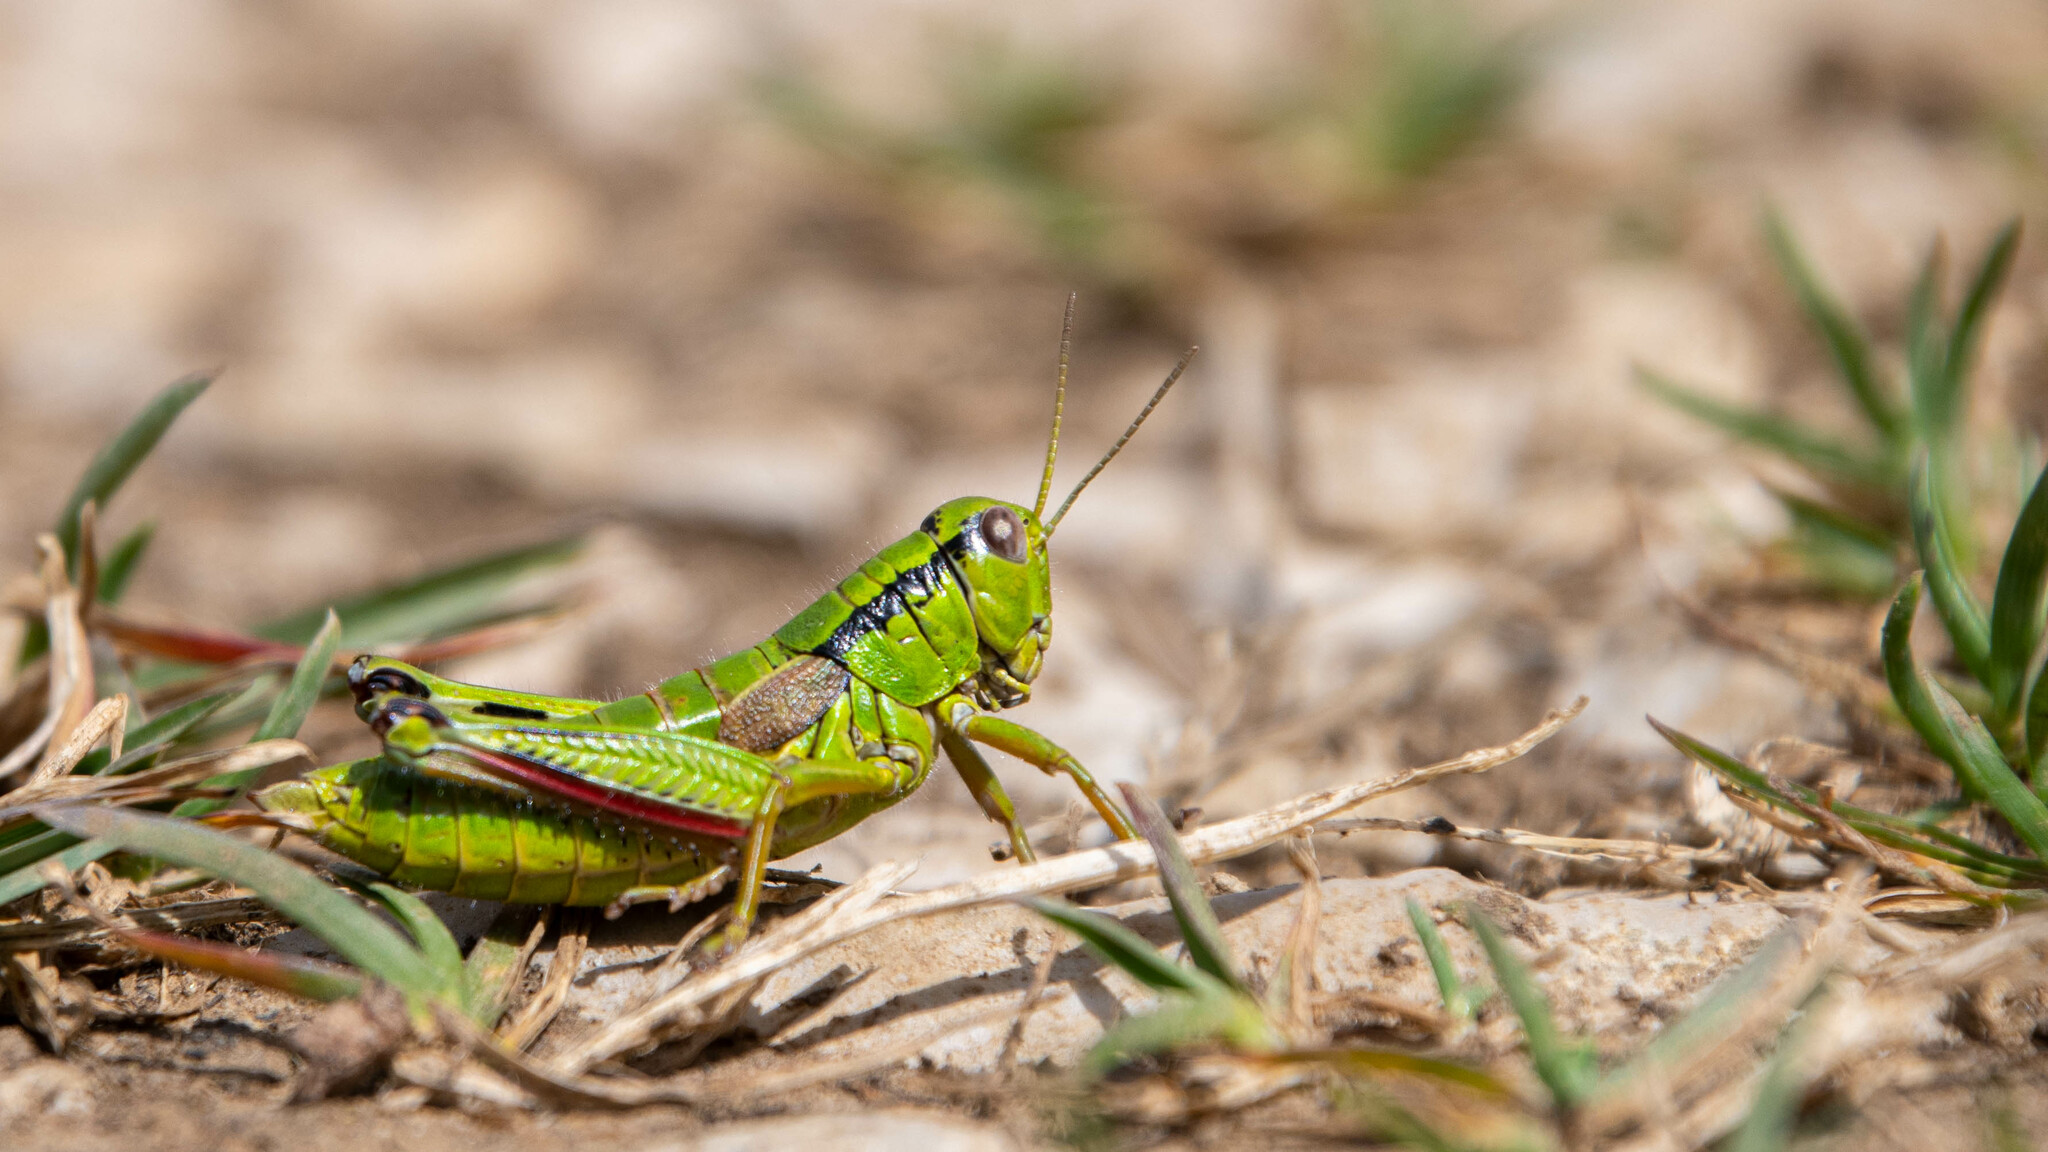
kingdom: Animalia
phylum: Arthropoda
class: Insecta
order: Orthoptera
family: Acrididae
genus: Miramella
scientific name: Miramella alpina
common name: Green mountain grasshopper
